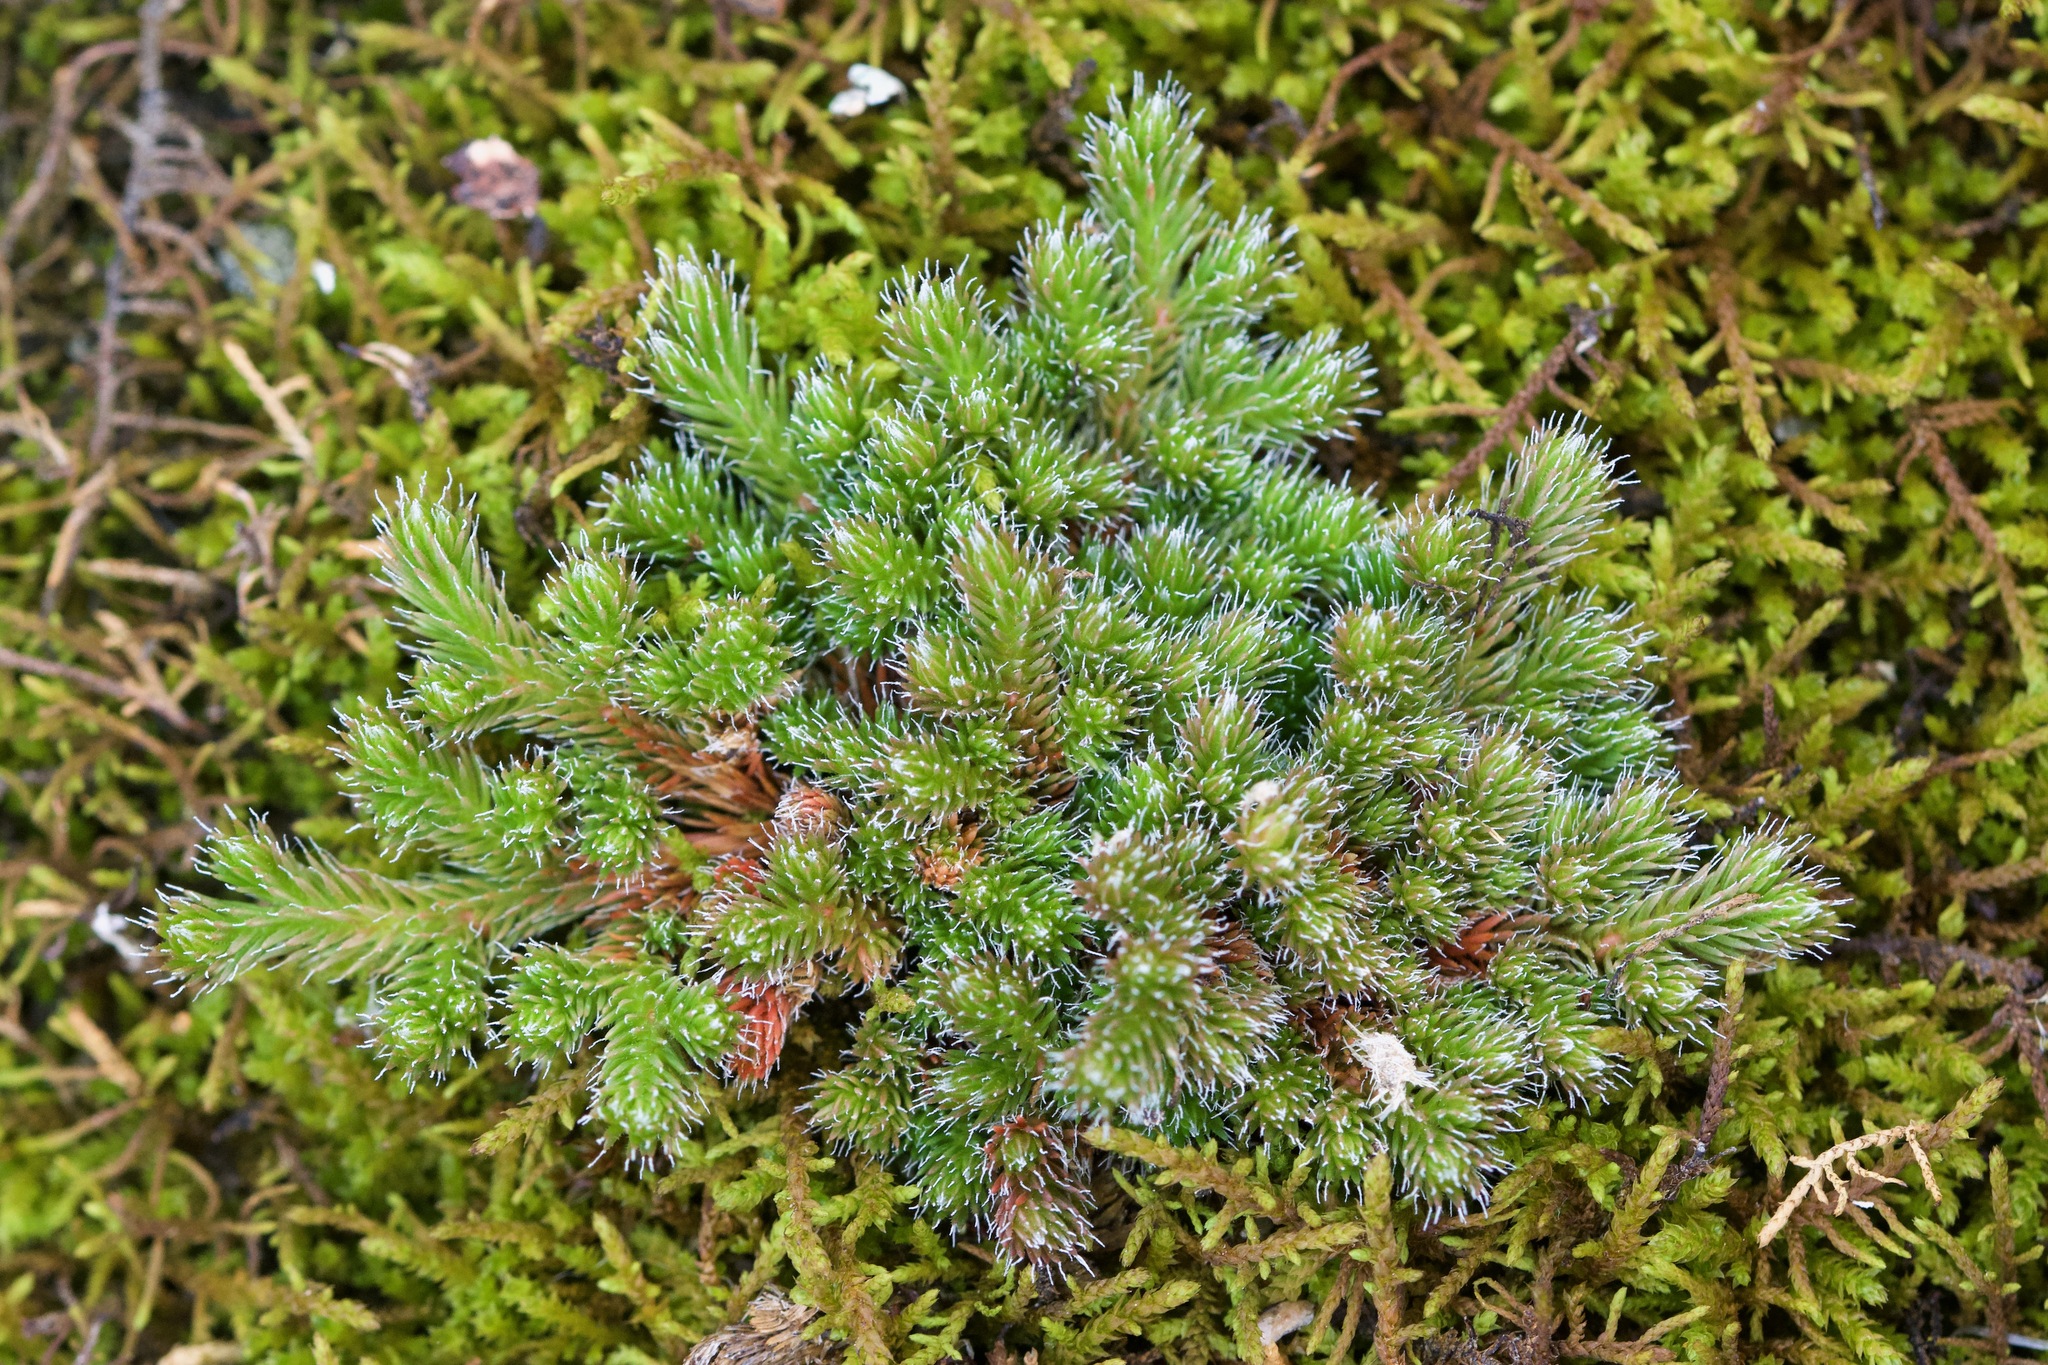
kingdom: Plantae
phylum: Tracheophyta
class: Lycopodiopsida
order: Selaginellales
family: Selaginellaceae
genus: Selaginella
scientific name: Selaginella rupestris
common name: Dwarf spikemoss
